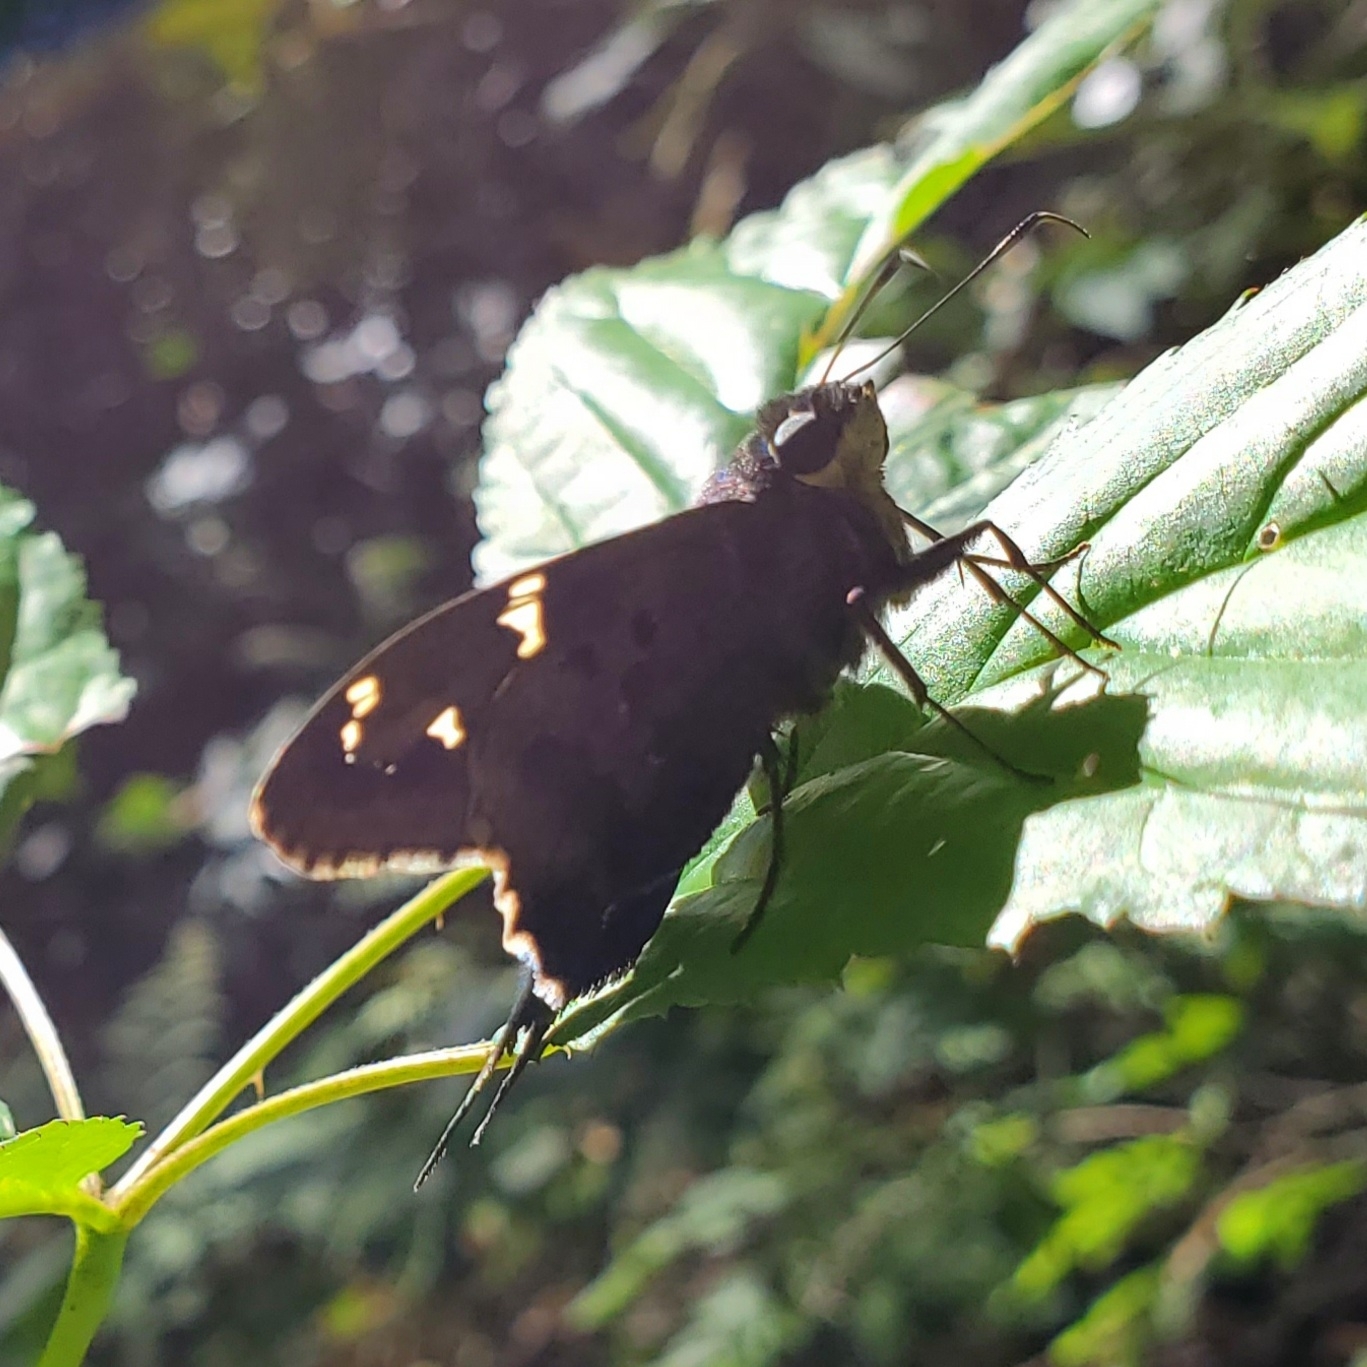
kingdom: Animalia
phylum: Arthropoda
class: Insecta
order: Lepidoptera
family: Hesperiidae
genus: Urbanus
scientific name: Urbanus proteus
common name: Long-tailed skipper
